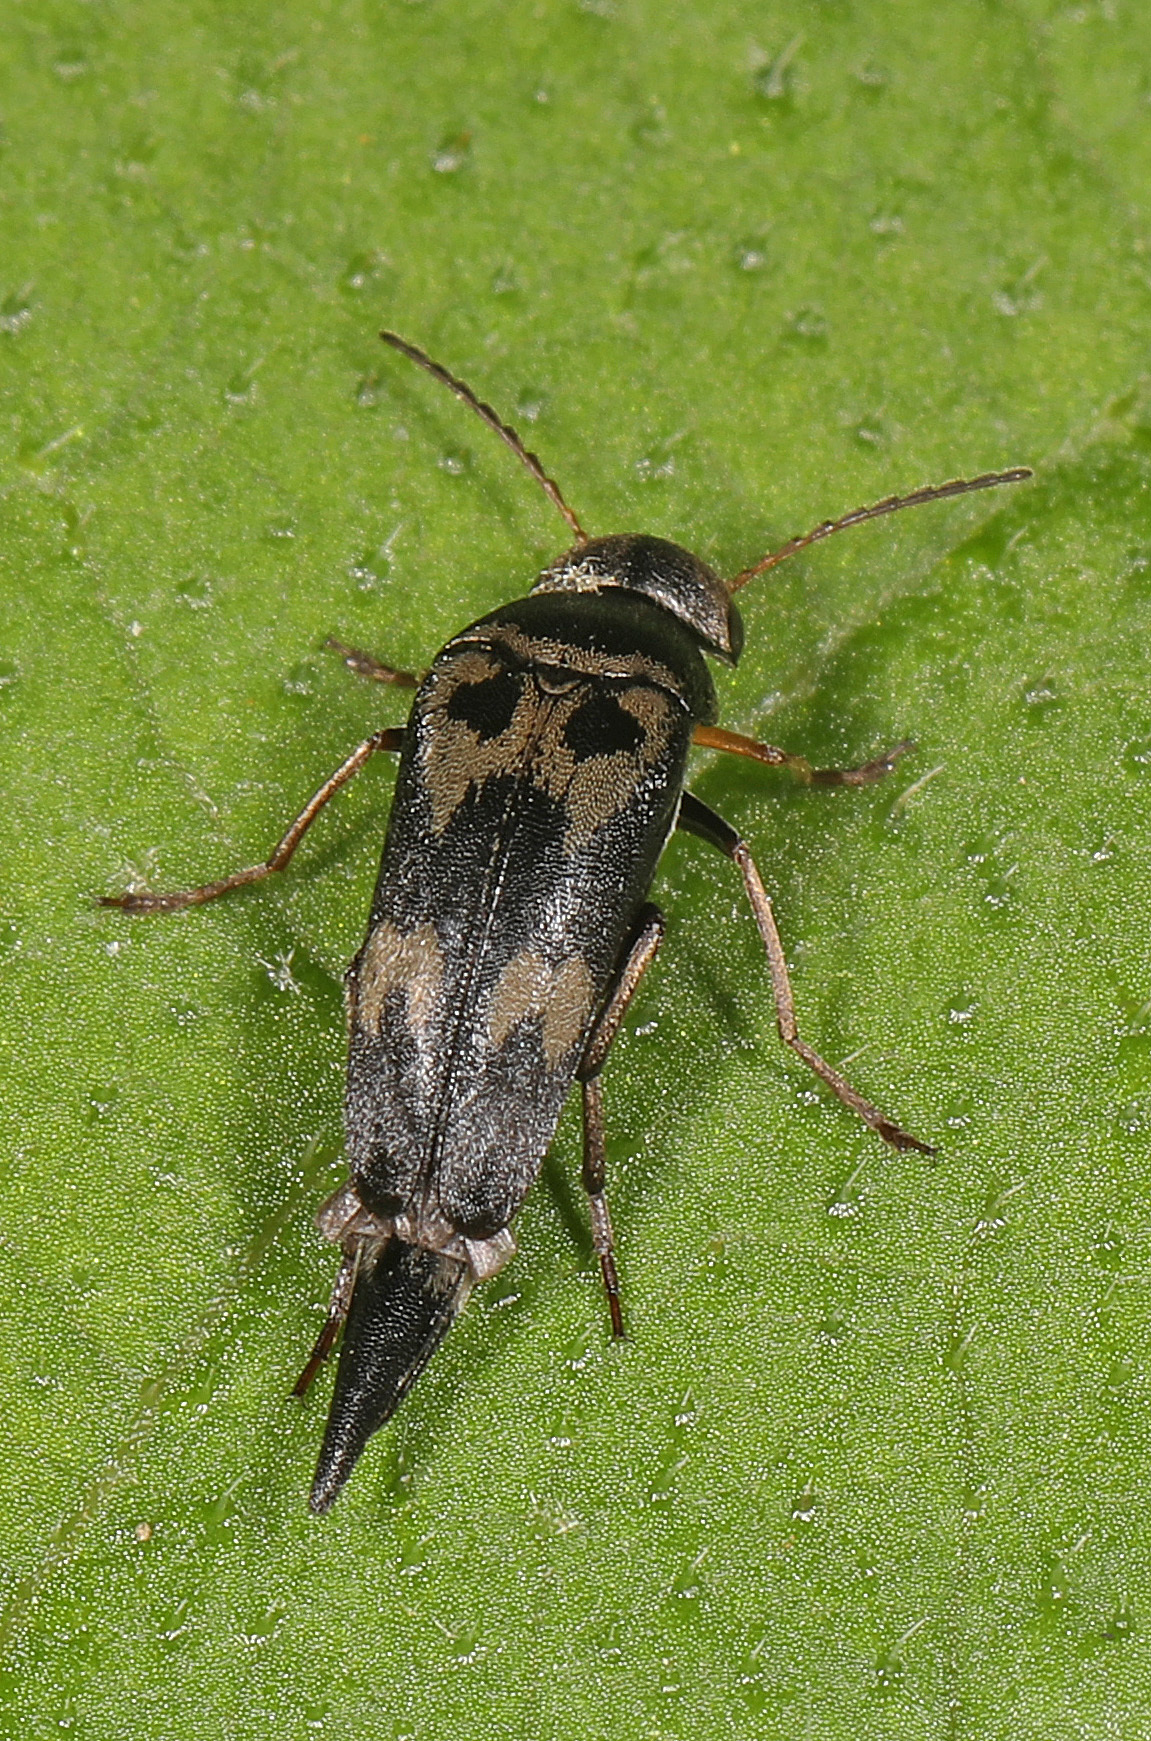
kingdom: Animalia
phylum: Arthropoda
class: Insecta
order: Coleoptera
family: Mordellidae
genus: Glipa
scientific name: Glipa oculata
